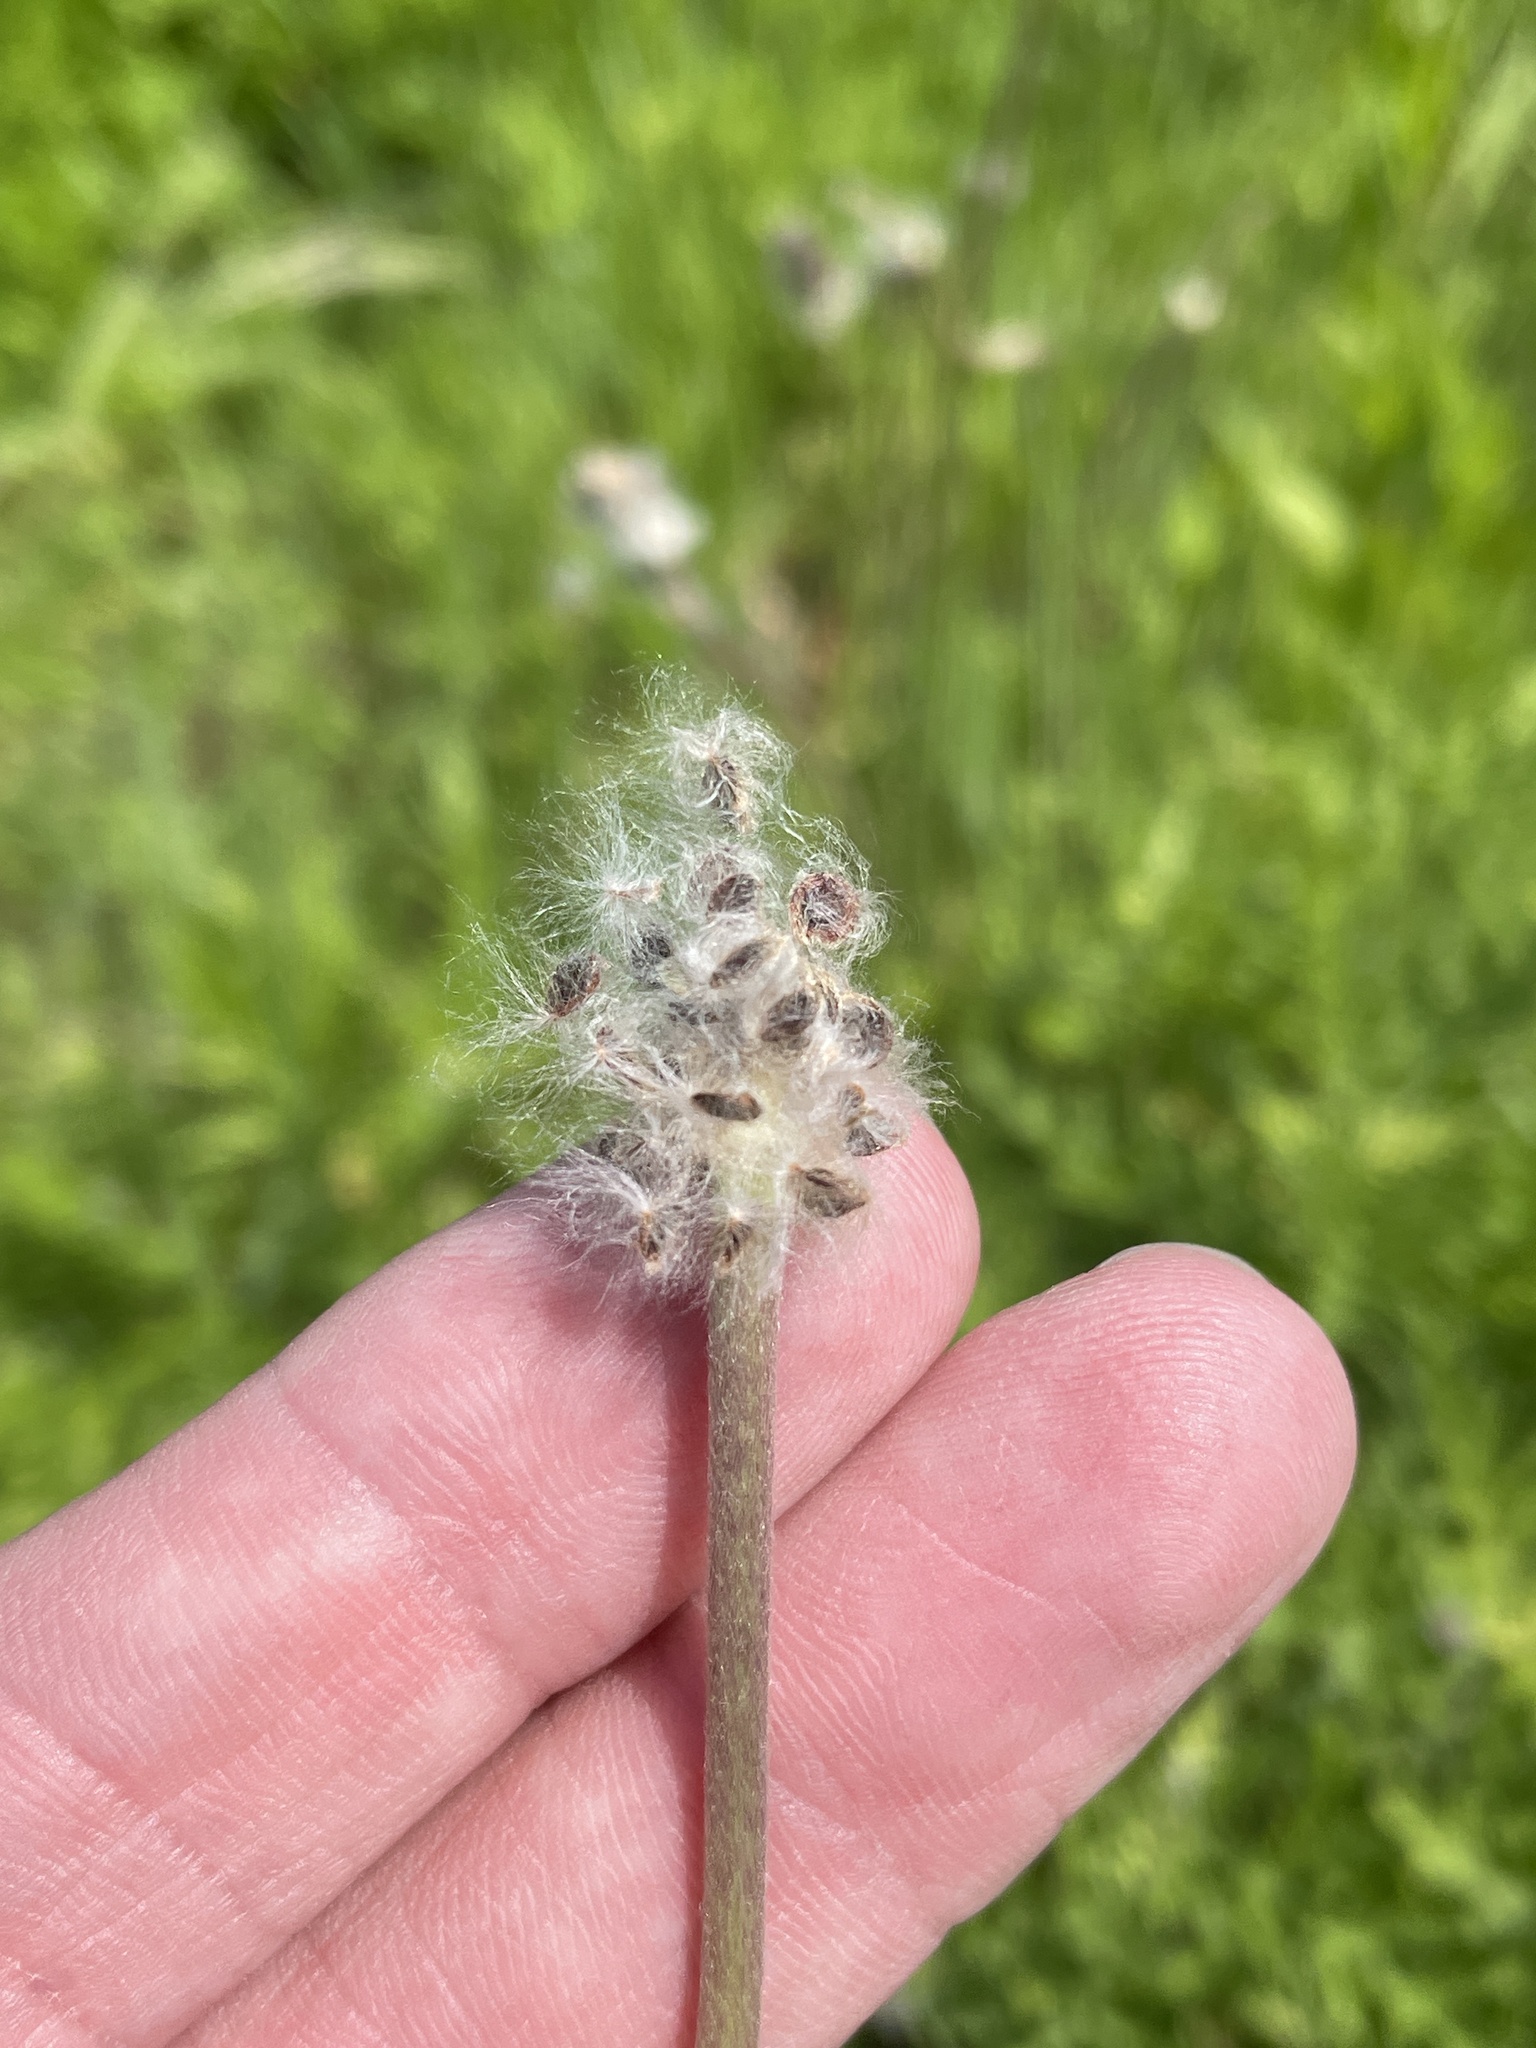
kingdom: Plantae
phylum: Tracheophyta
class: Magnoliopsida
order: Ranunculales
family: Ranunculaceae
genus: Anemone
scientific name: Anemone berlandieri
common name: Ten-petal anemone
